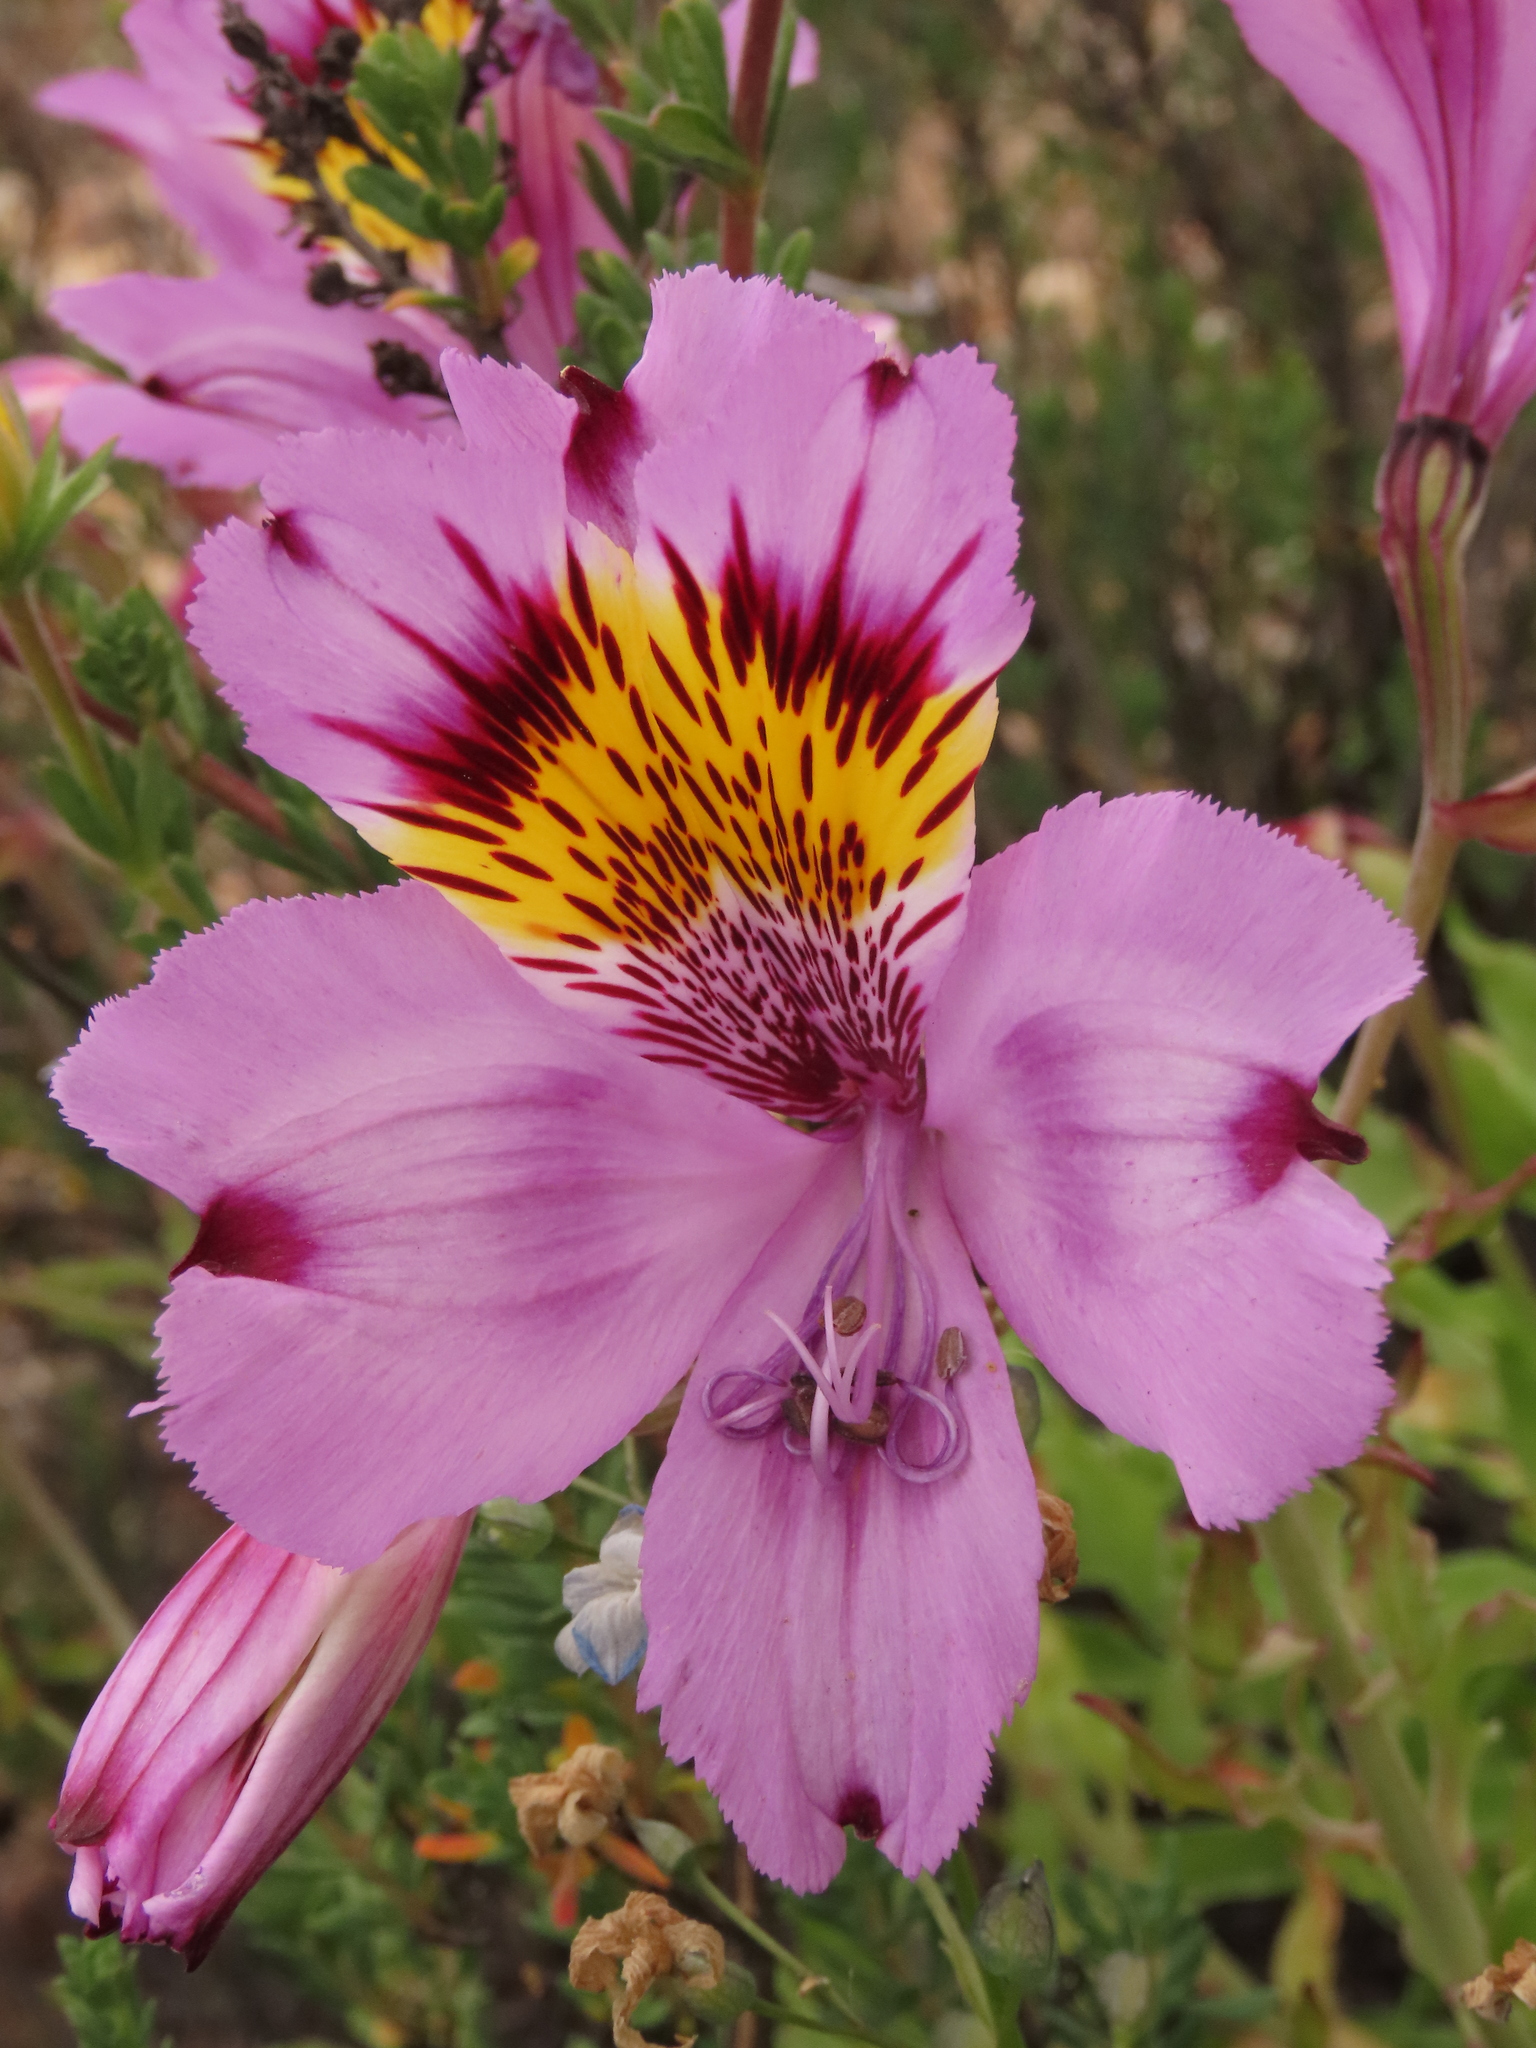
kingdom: Plantae
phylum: Tracheophyta
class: Liliopsida
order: Liliales
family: Alstroemeriaceae
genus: Alstroemeria
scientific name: Alstroemeria philippii
